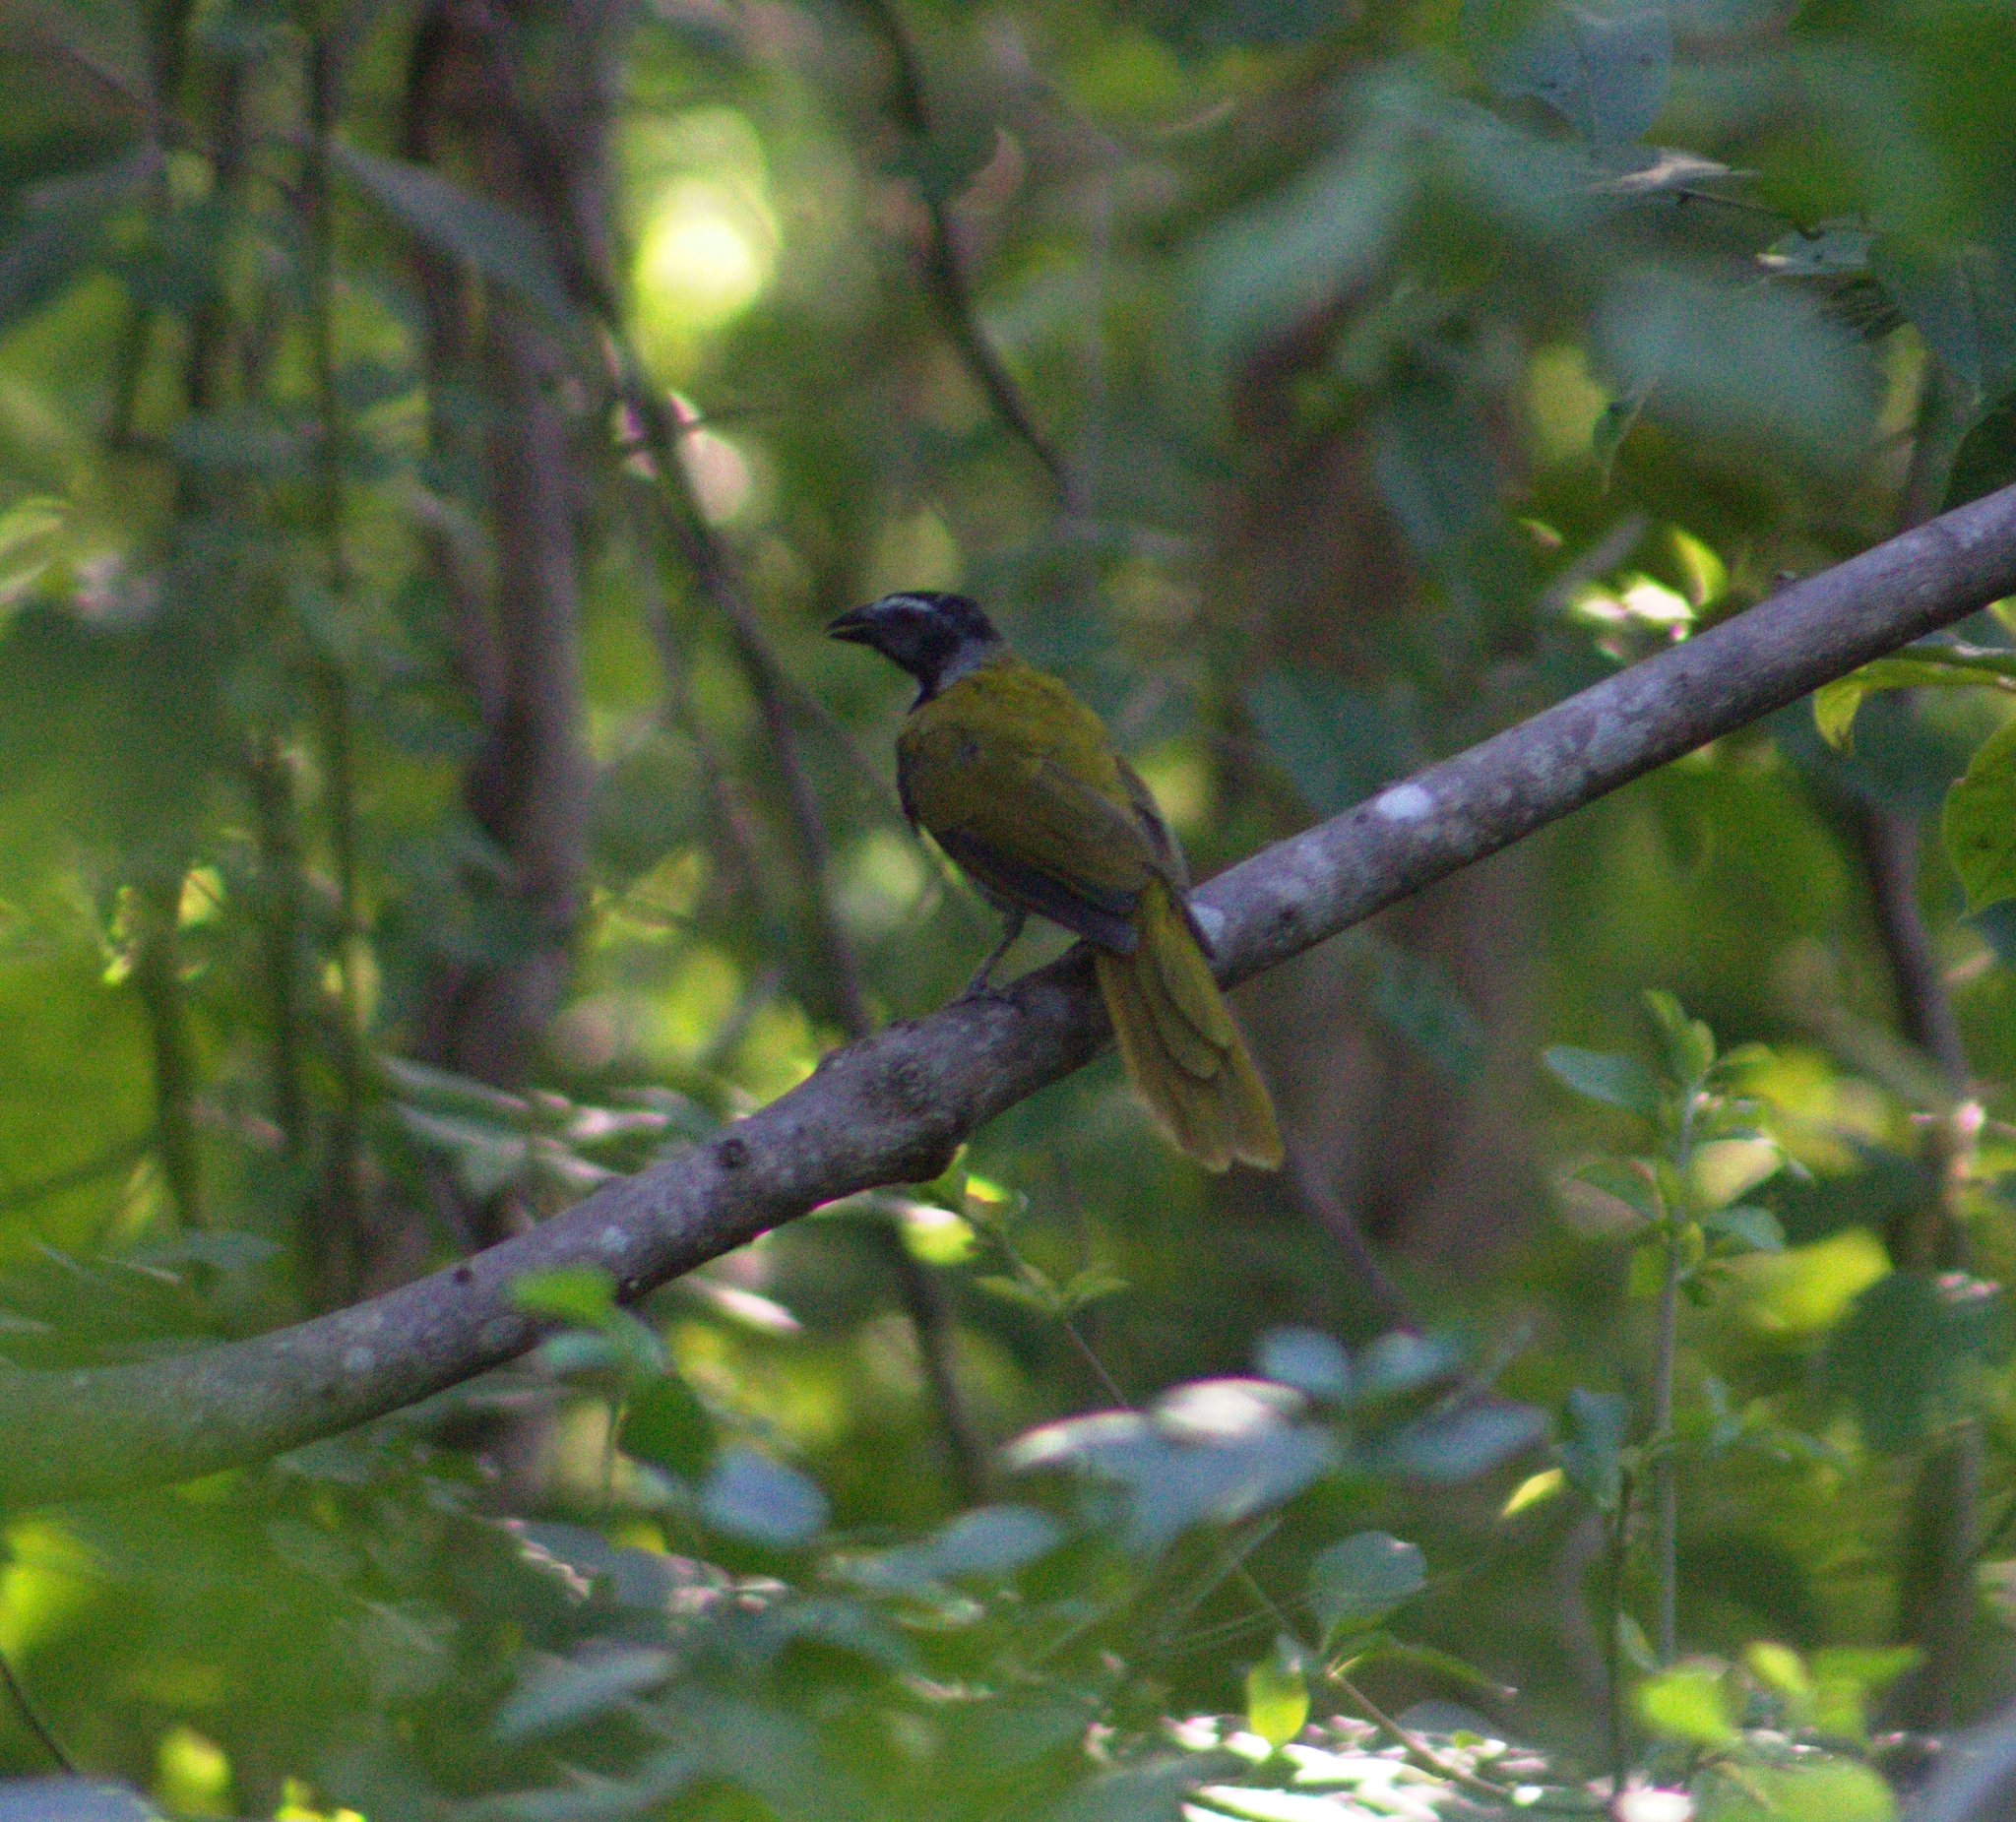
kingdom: Animalia
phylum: Chordata
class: Aves
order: Passeriformes
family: Thraupidae
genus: Saltator
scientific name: Saltator atriceps
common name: Black-headed saltator
